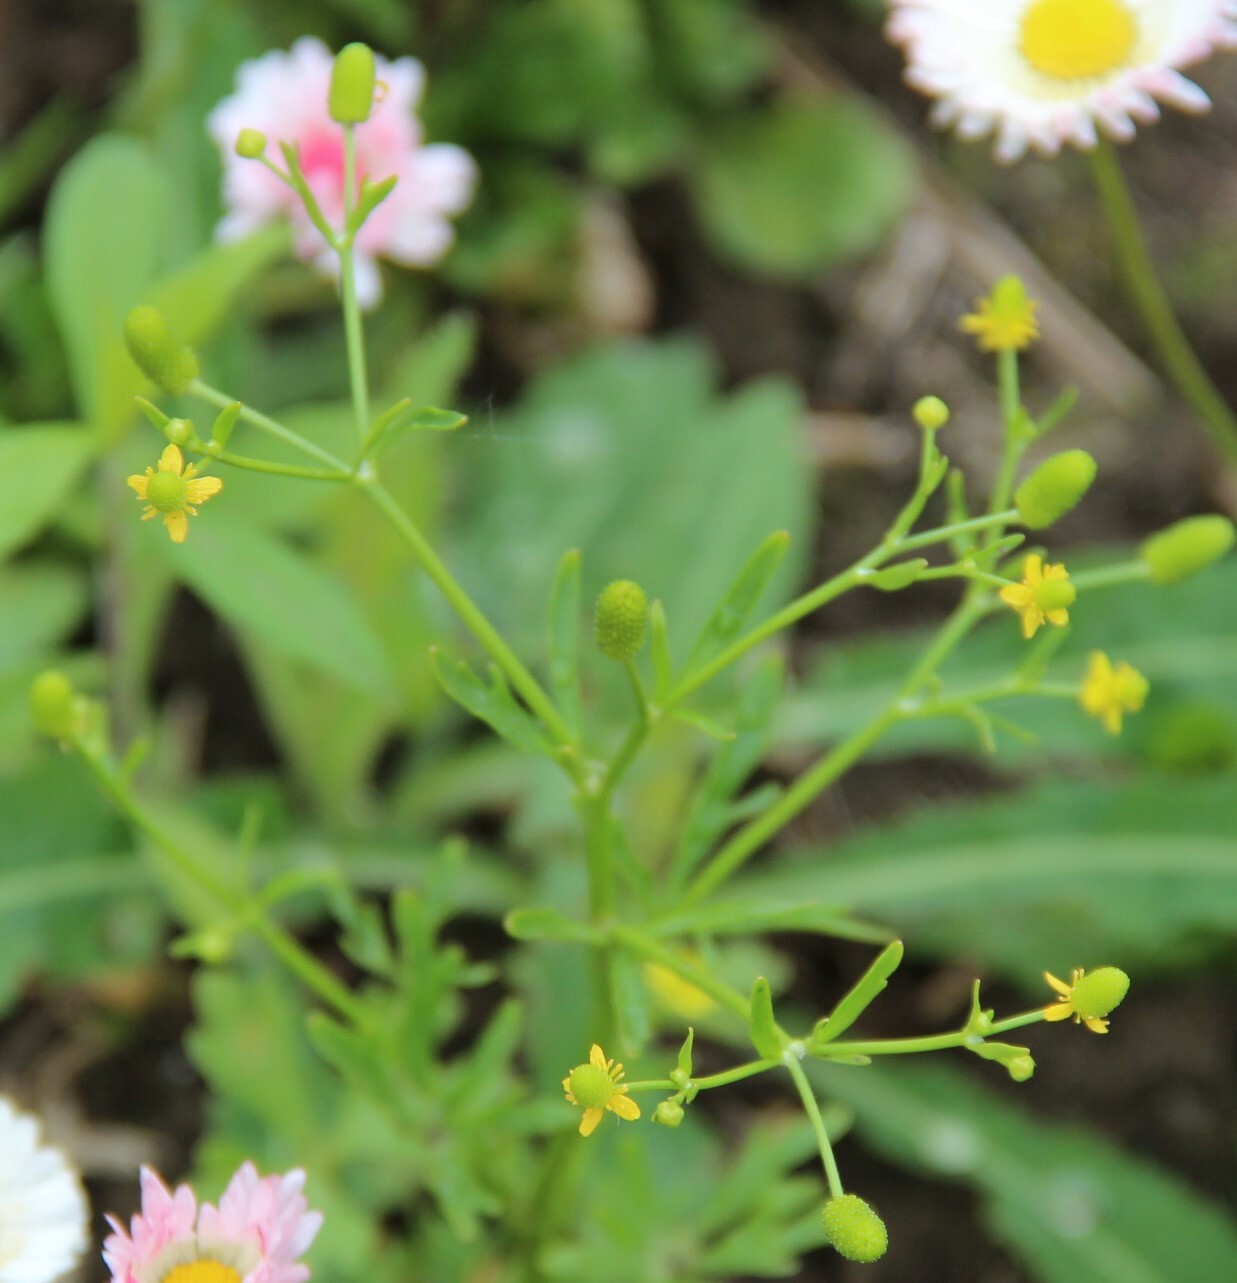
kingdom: Plantae
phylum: Tracheophyta
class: Magnoliopsida
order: Ranunculales
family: Ranunculaceae
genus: Ranunculus
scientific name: Ranunculus sceleratus
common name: Celery-leaved buttercup
